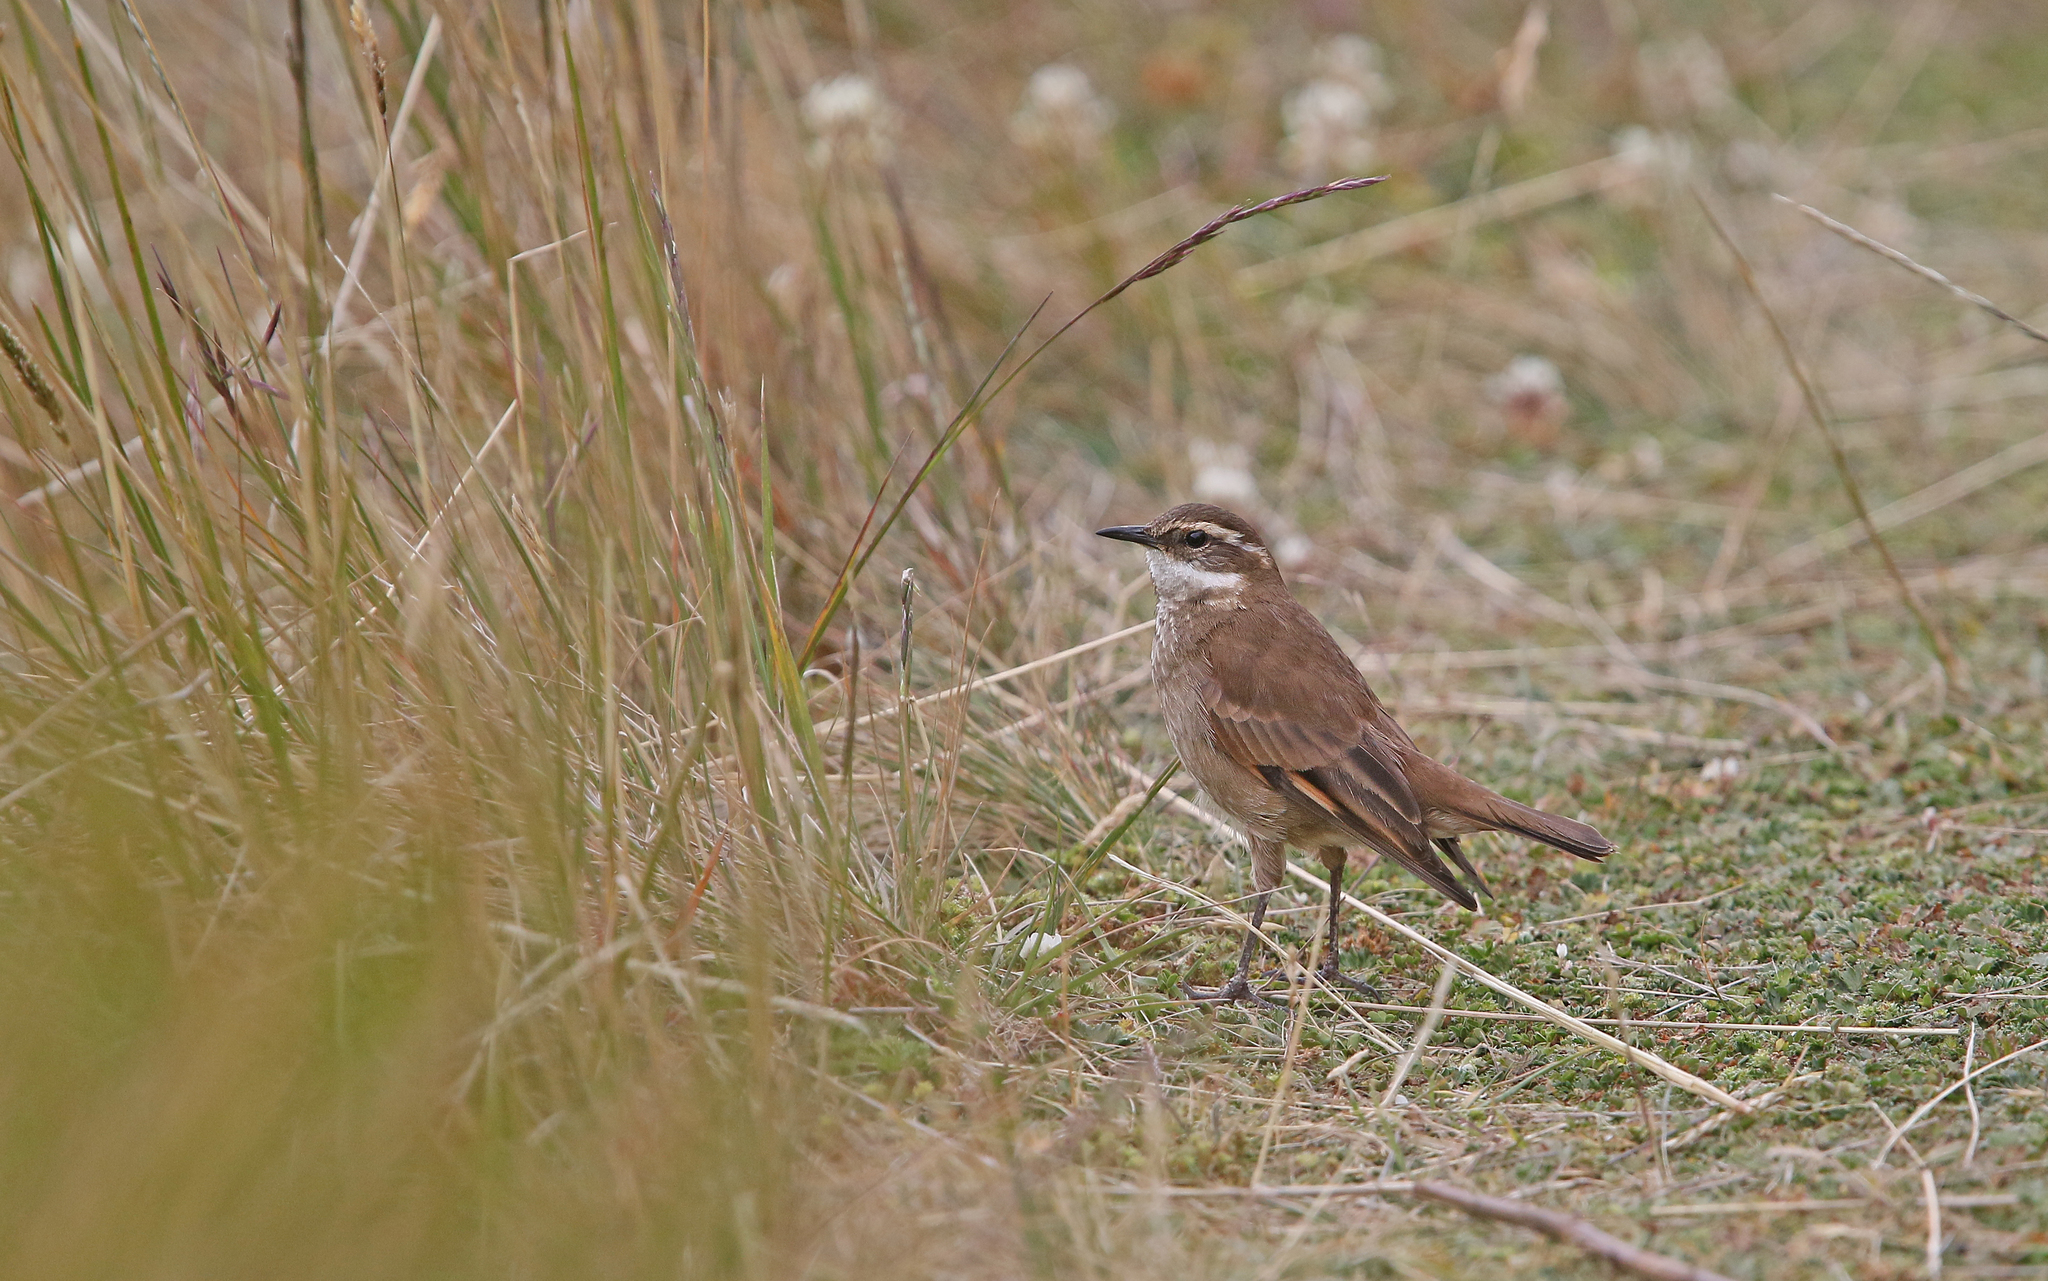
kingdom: Animalia
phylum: Chordata
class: Aves
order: Passeriformes
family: Furnariidae
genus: Cinclodes
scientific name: Cinclodes albidiventris
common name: Chestnut-winged cinclodes
